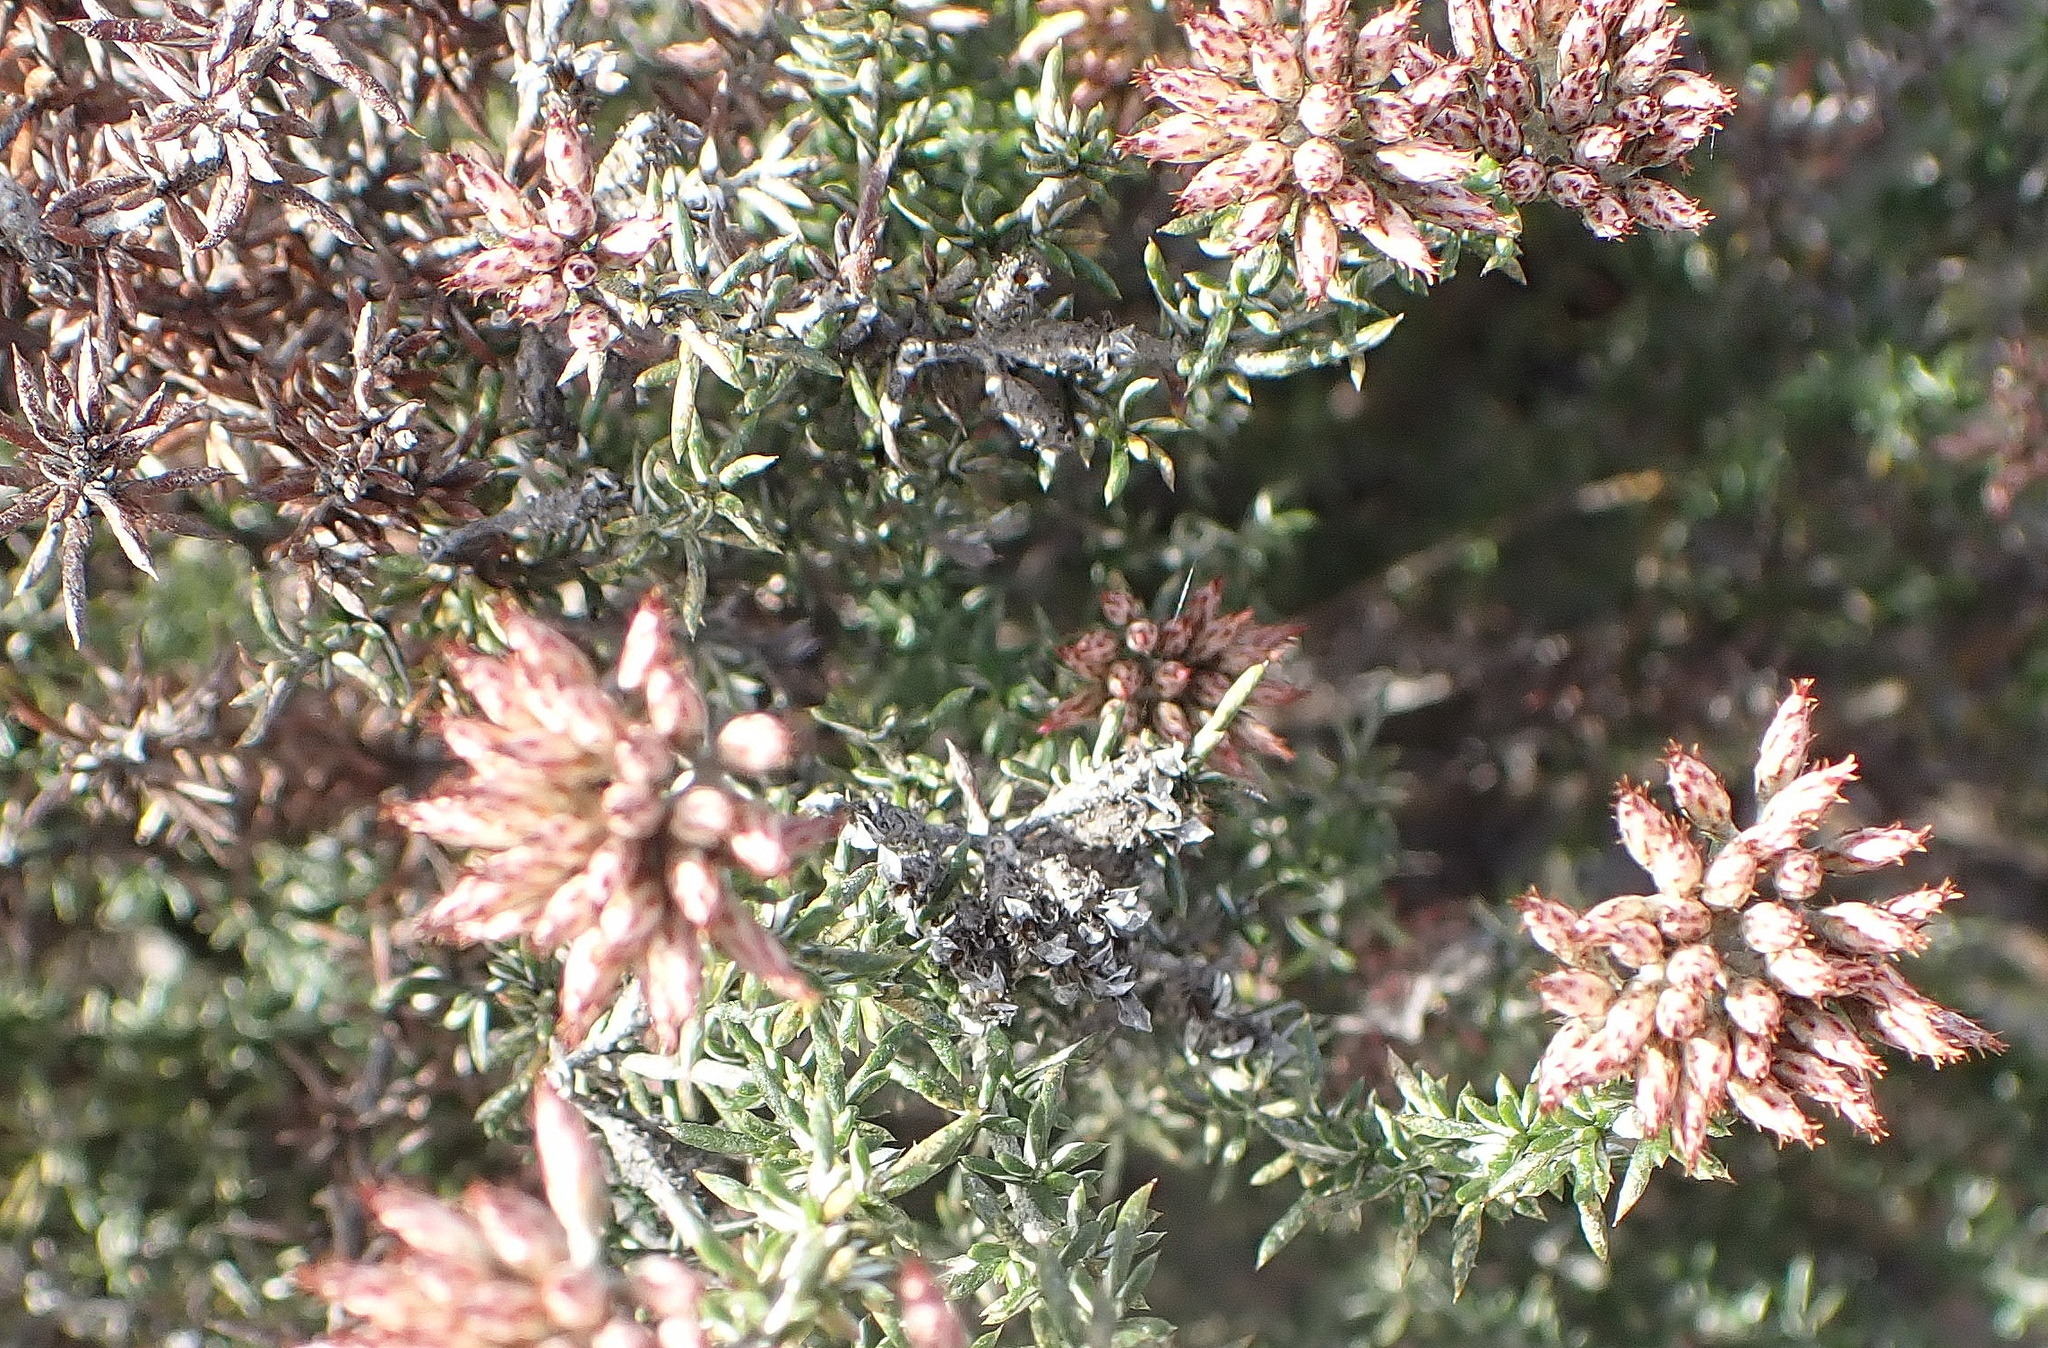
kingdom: Plantae
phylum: Tracheophyta
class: Magnoliopsida
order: Asterales
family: Asteraceae
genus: Metalasia
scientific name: Metalasia massonii
